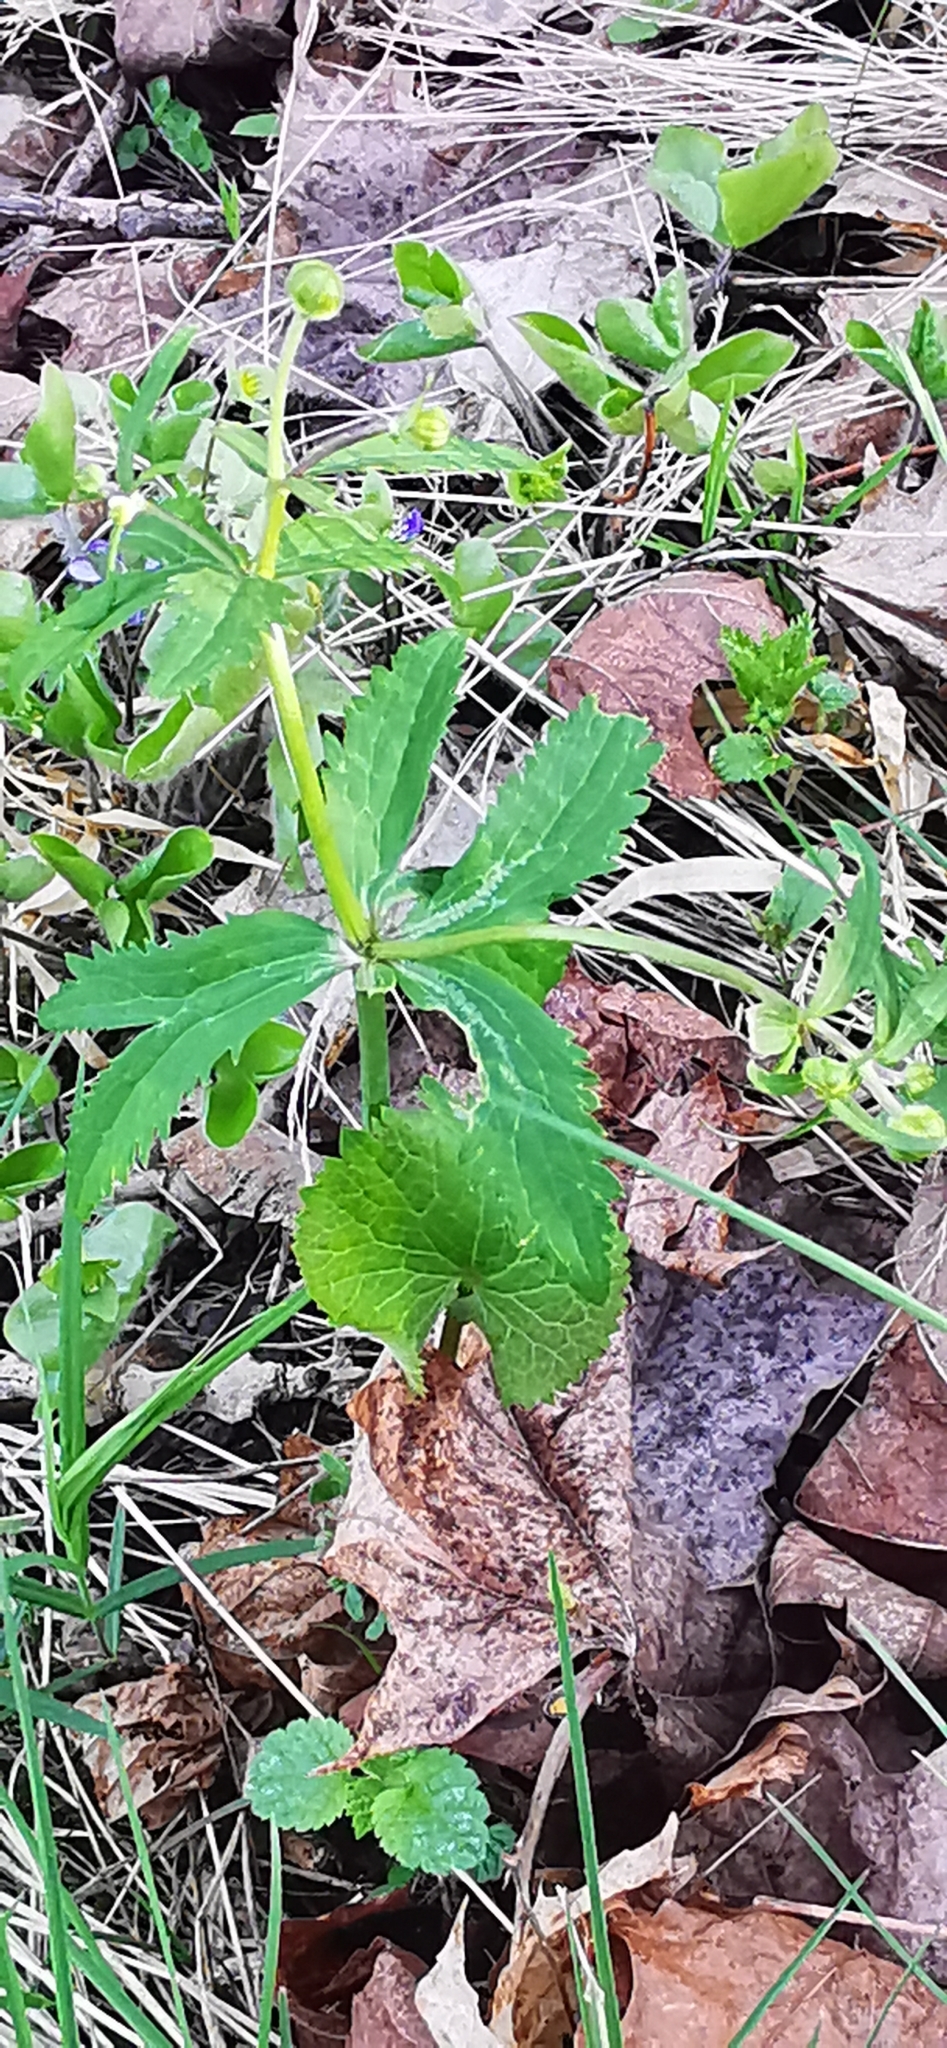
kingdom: Plantae
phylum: Tracheophyta
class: Magnoliopsida
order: Ranunculales
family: Ranunculaceae
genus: Ranunculus
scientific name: Ranunculus cassubicus
